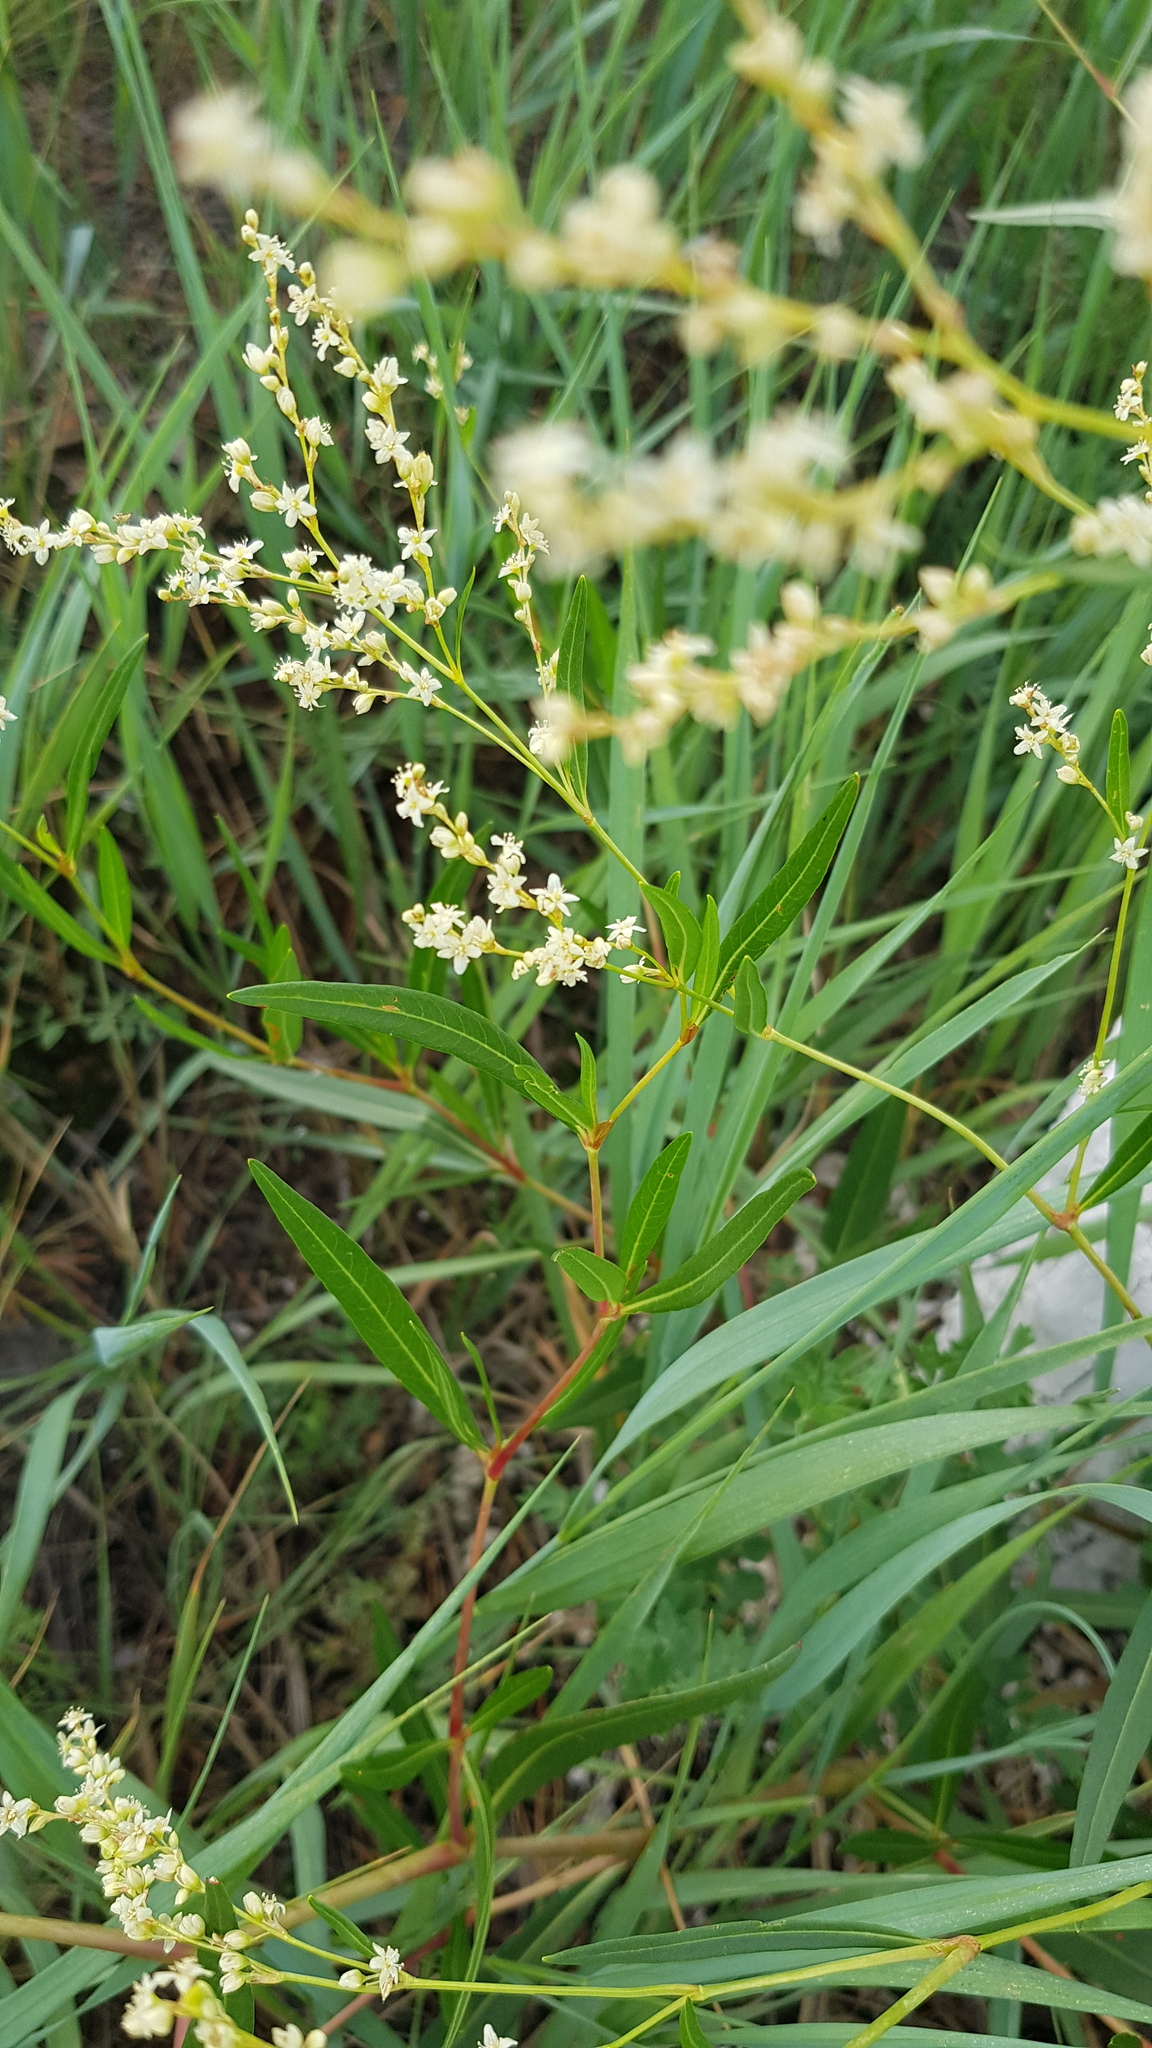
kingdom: Plantae
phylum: Tracheophyta
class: Magnoliopsida
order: Caryophyllales
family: Polygonaceae
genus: Koenigia
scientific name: Koenigia divaricata
